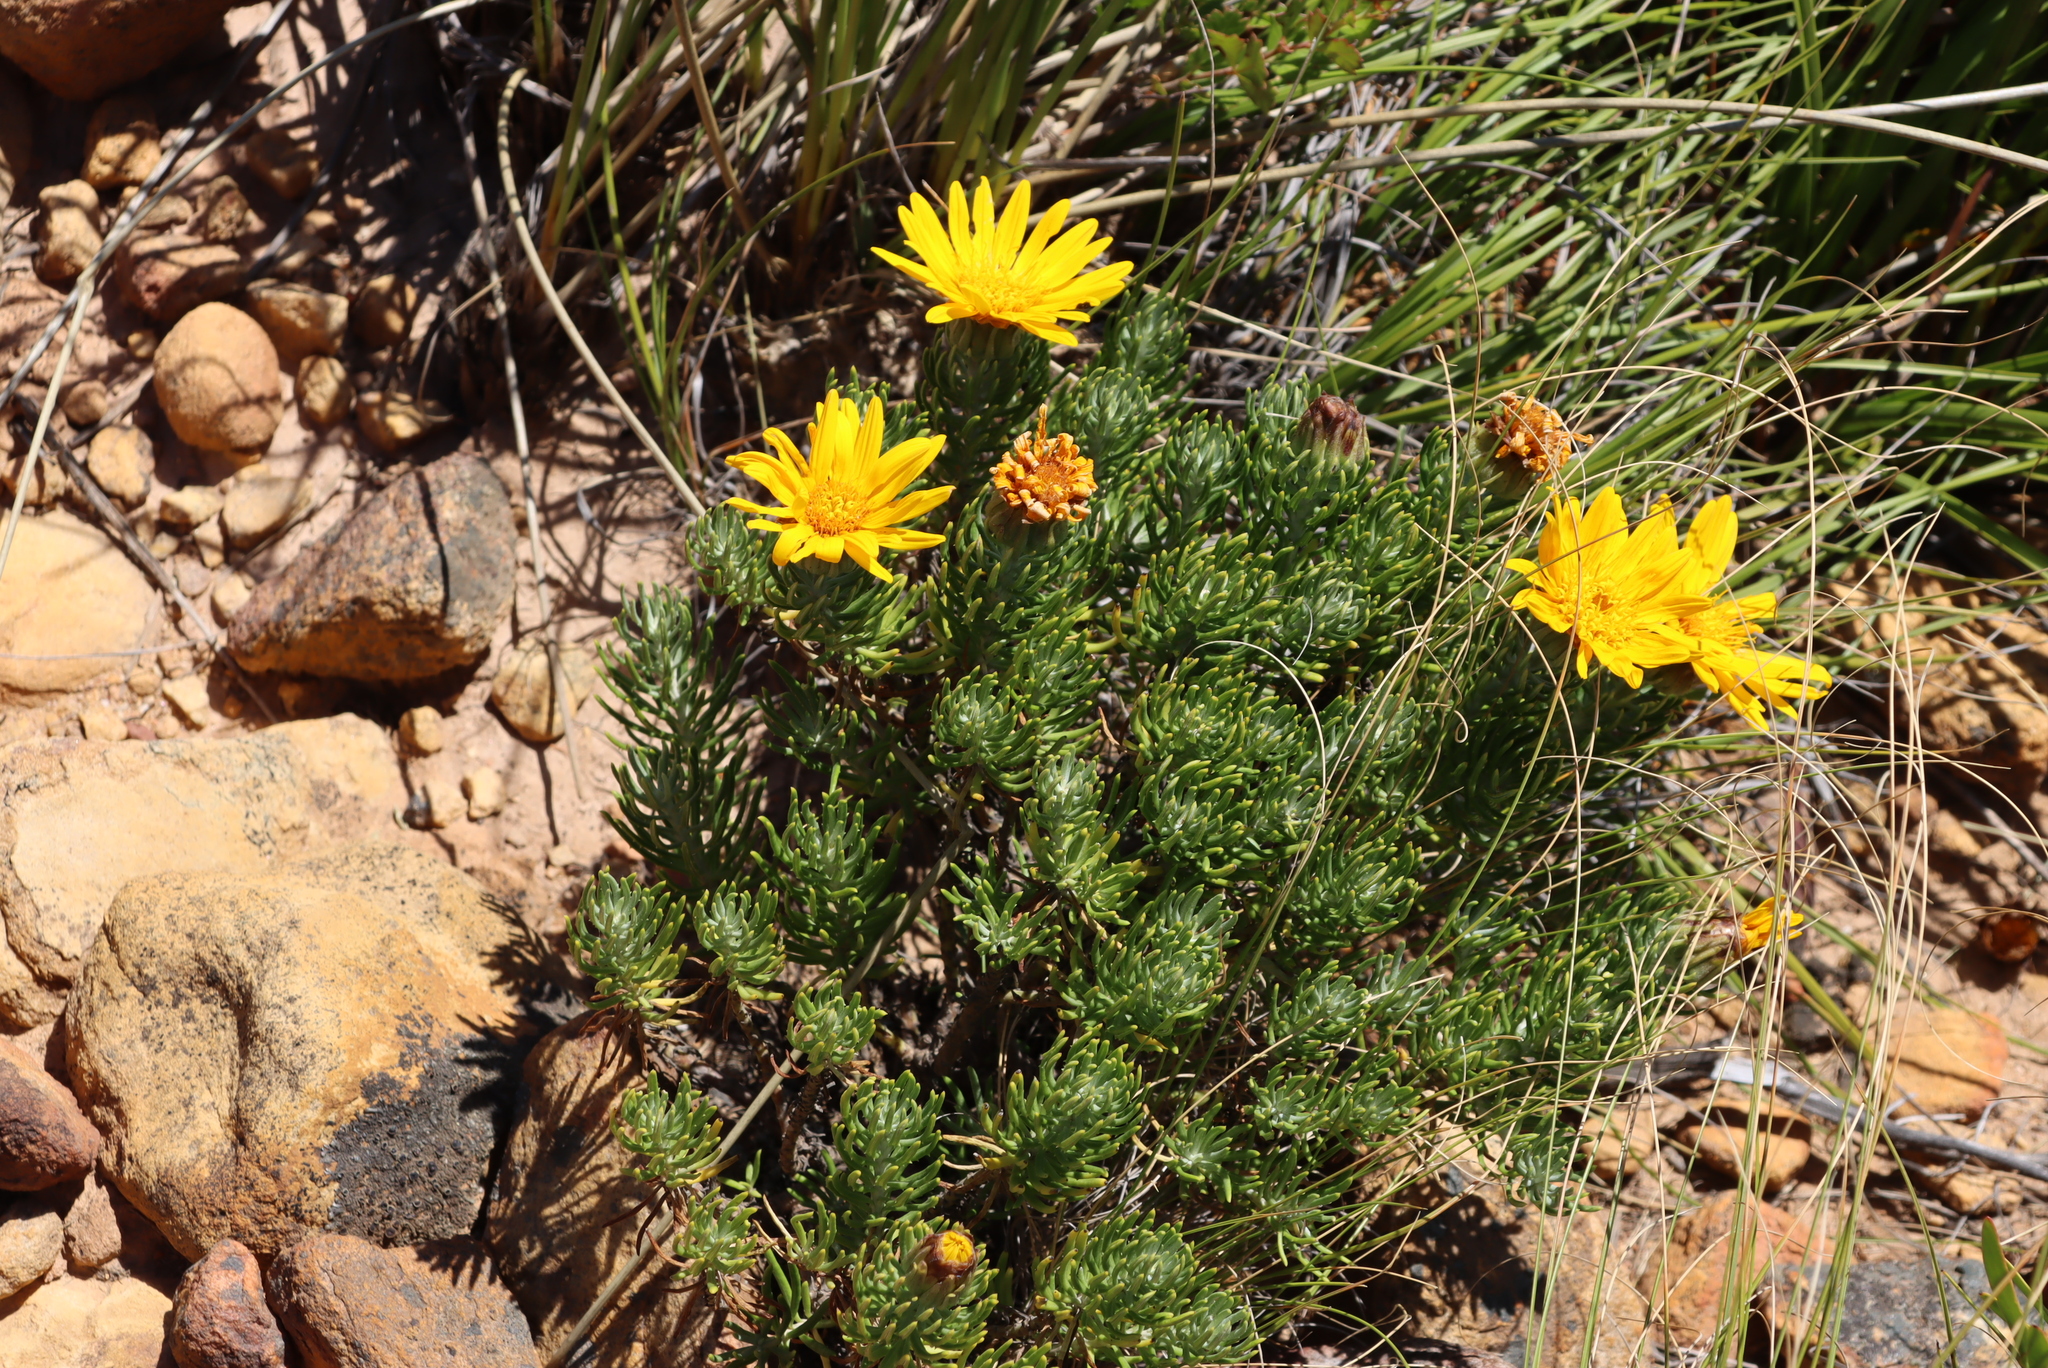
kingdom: Plantae
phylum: Tracheophyta
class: Magnoliopsida
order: Asterales
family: Asteraceae
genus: Heterolepis
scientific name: Heterolepis aliena
